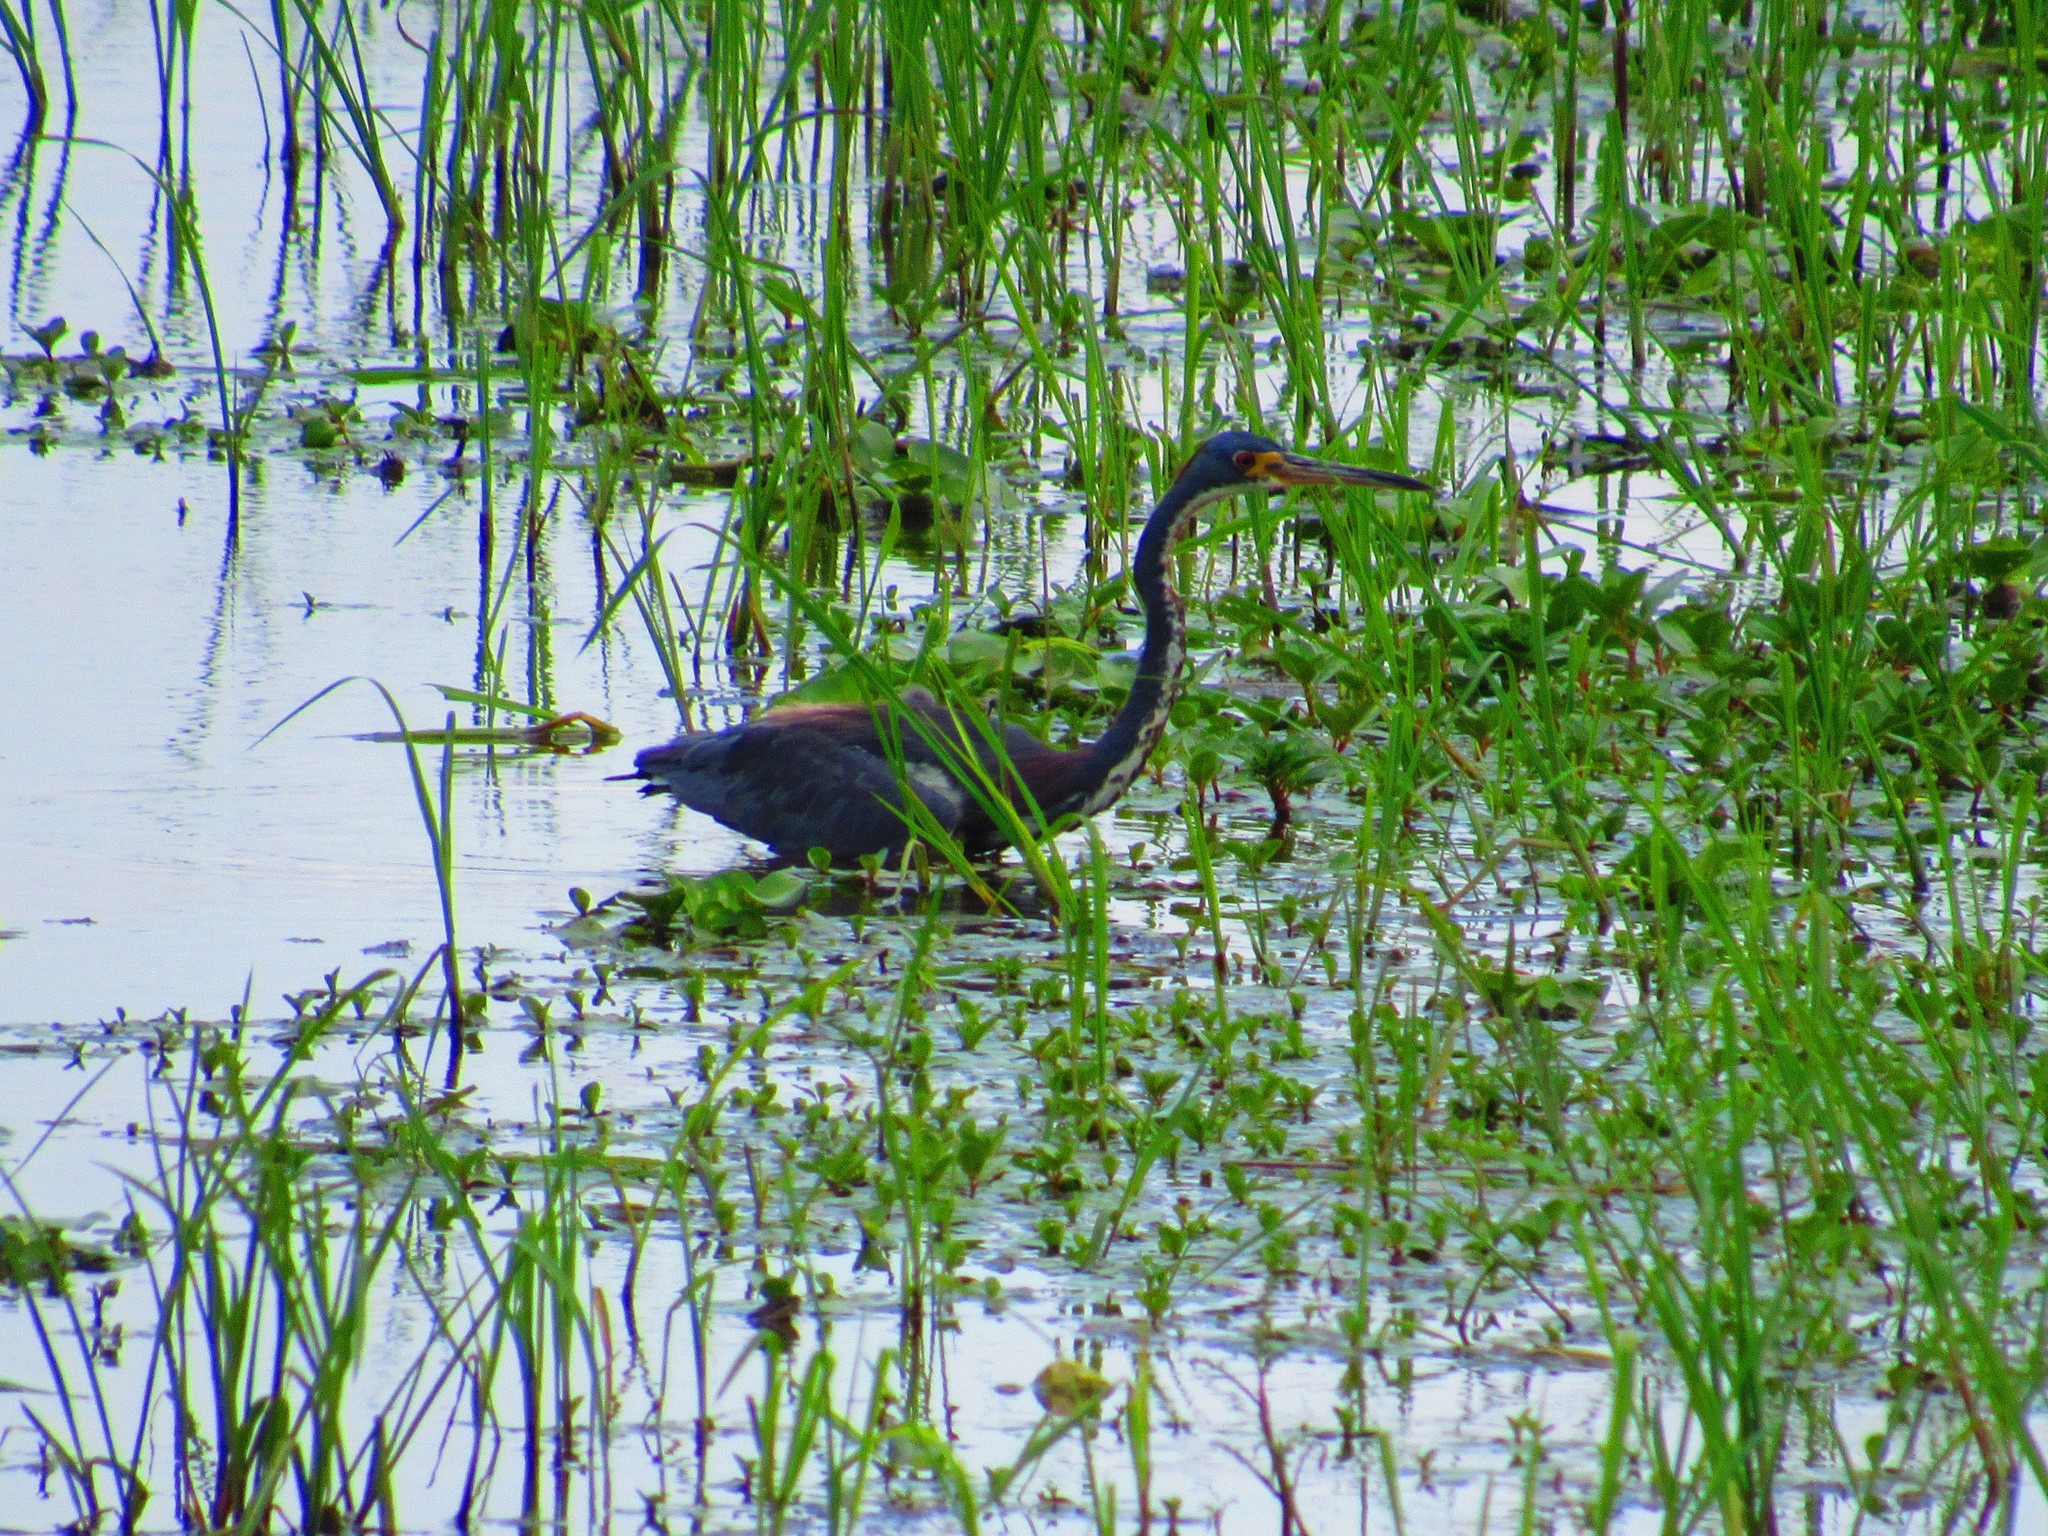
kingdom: Animalia
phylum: Chordata
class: Aves
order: Pelecaniformes
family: Ardeidae
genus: Egretta
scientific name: Egretta tricolor
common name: Tricolored heron
